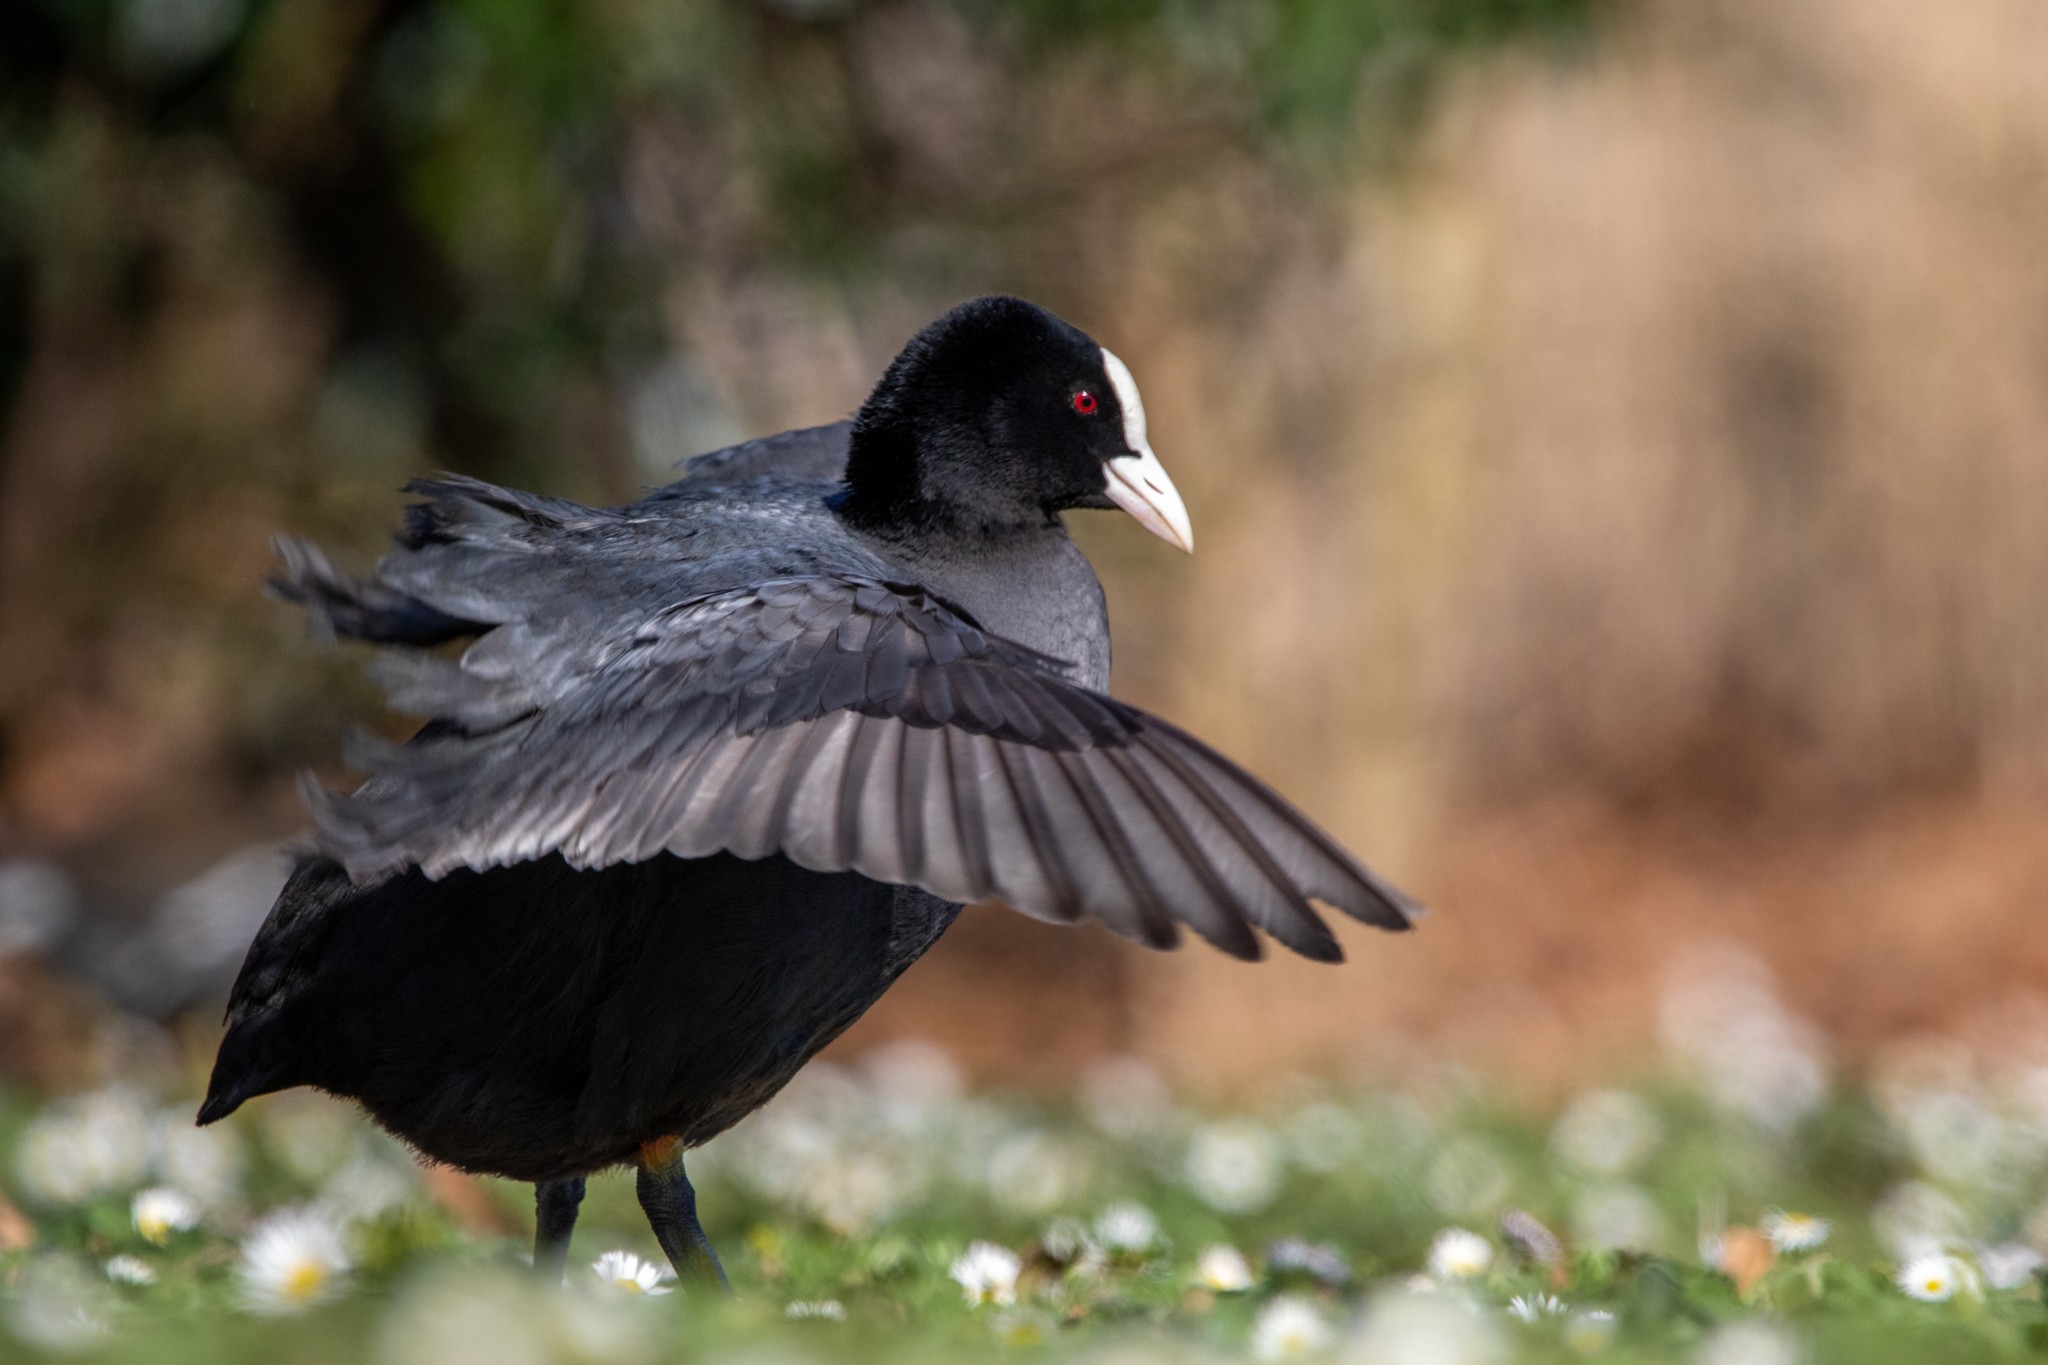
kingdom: Animalia
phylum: Chordata
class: Aves
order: Gruiformes
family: Rallidae
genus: Fulica
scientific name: Fulica atra
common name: Eurasian coot
